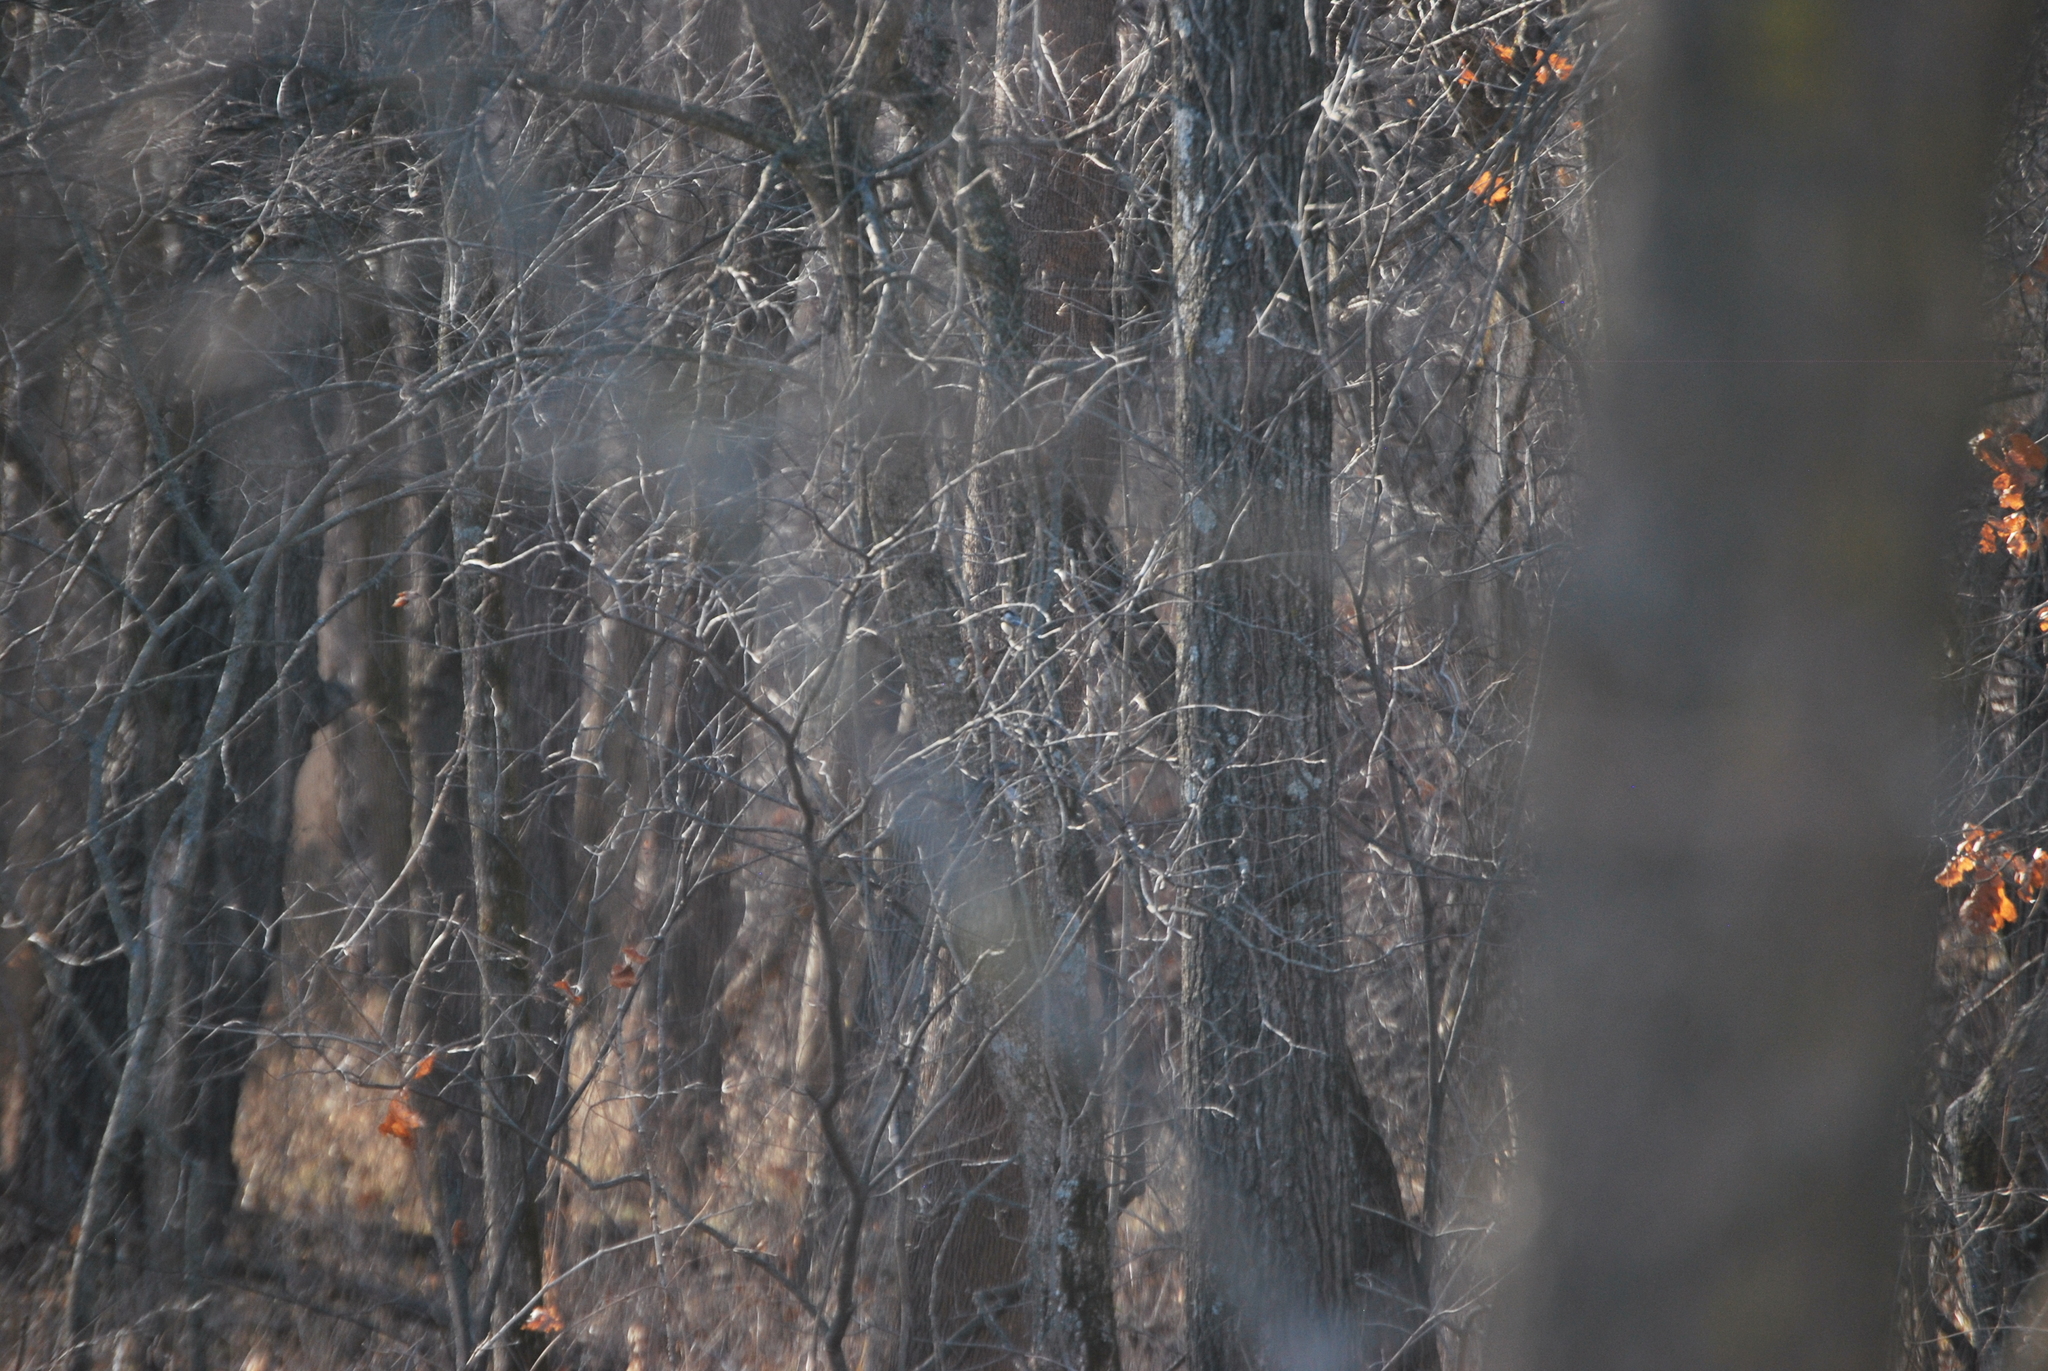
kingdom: Animalia
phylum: Chordata
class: Aves
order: Passeriformes
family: Paridae
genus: Poecile
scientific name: Poecile atricapillus
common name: Black-capped chickadee
